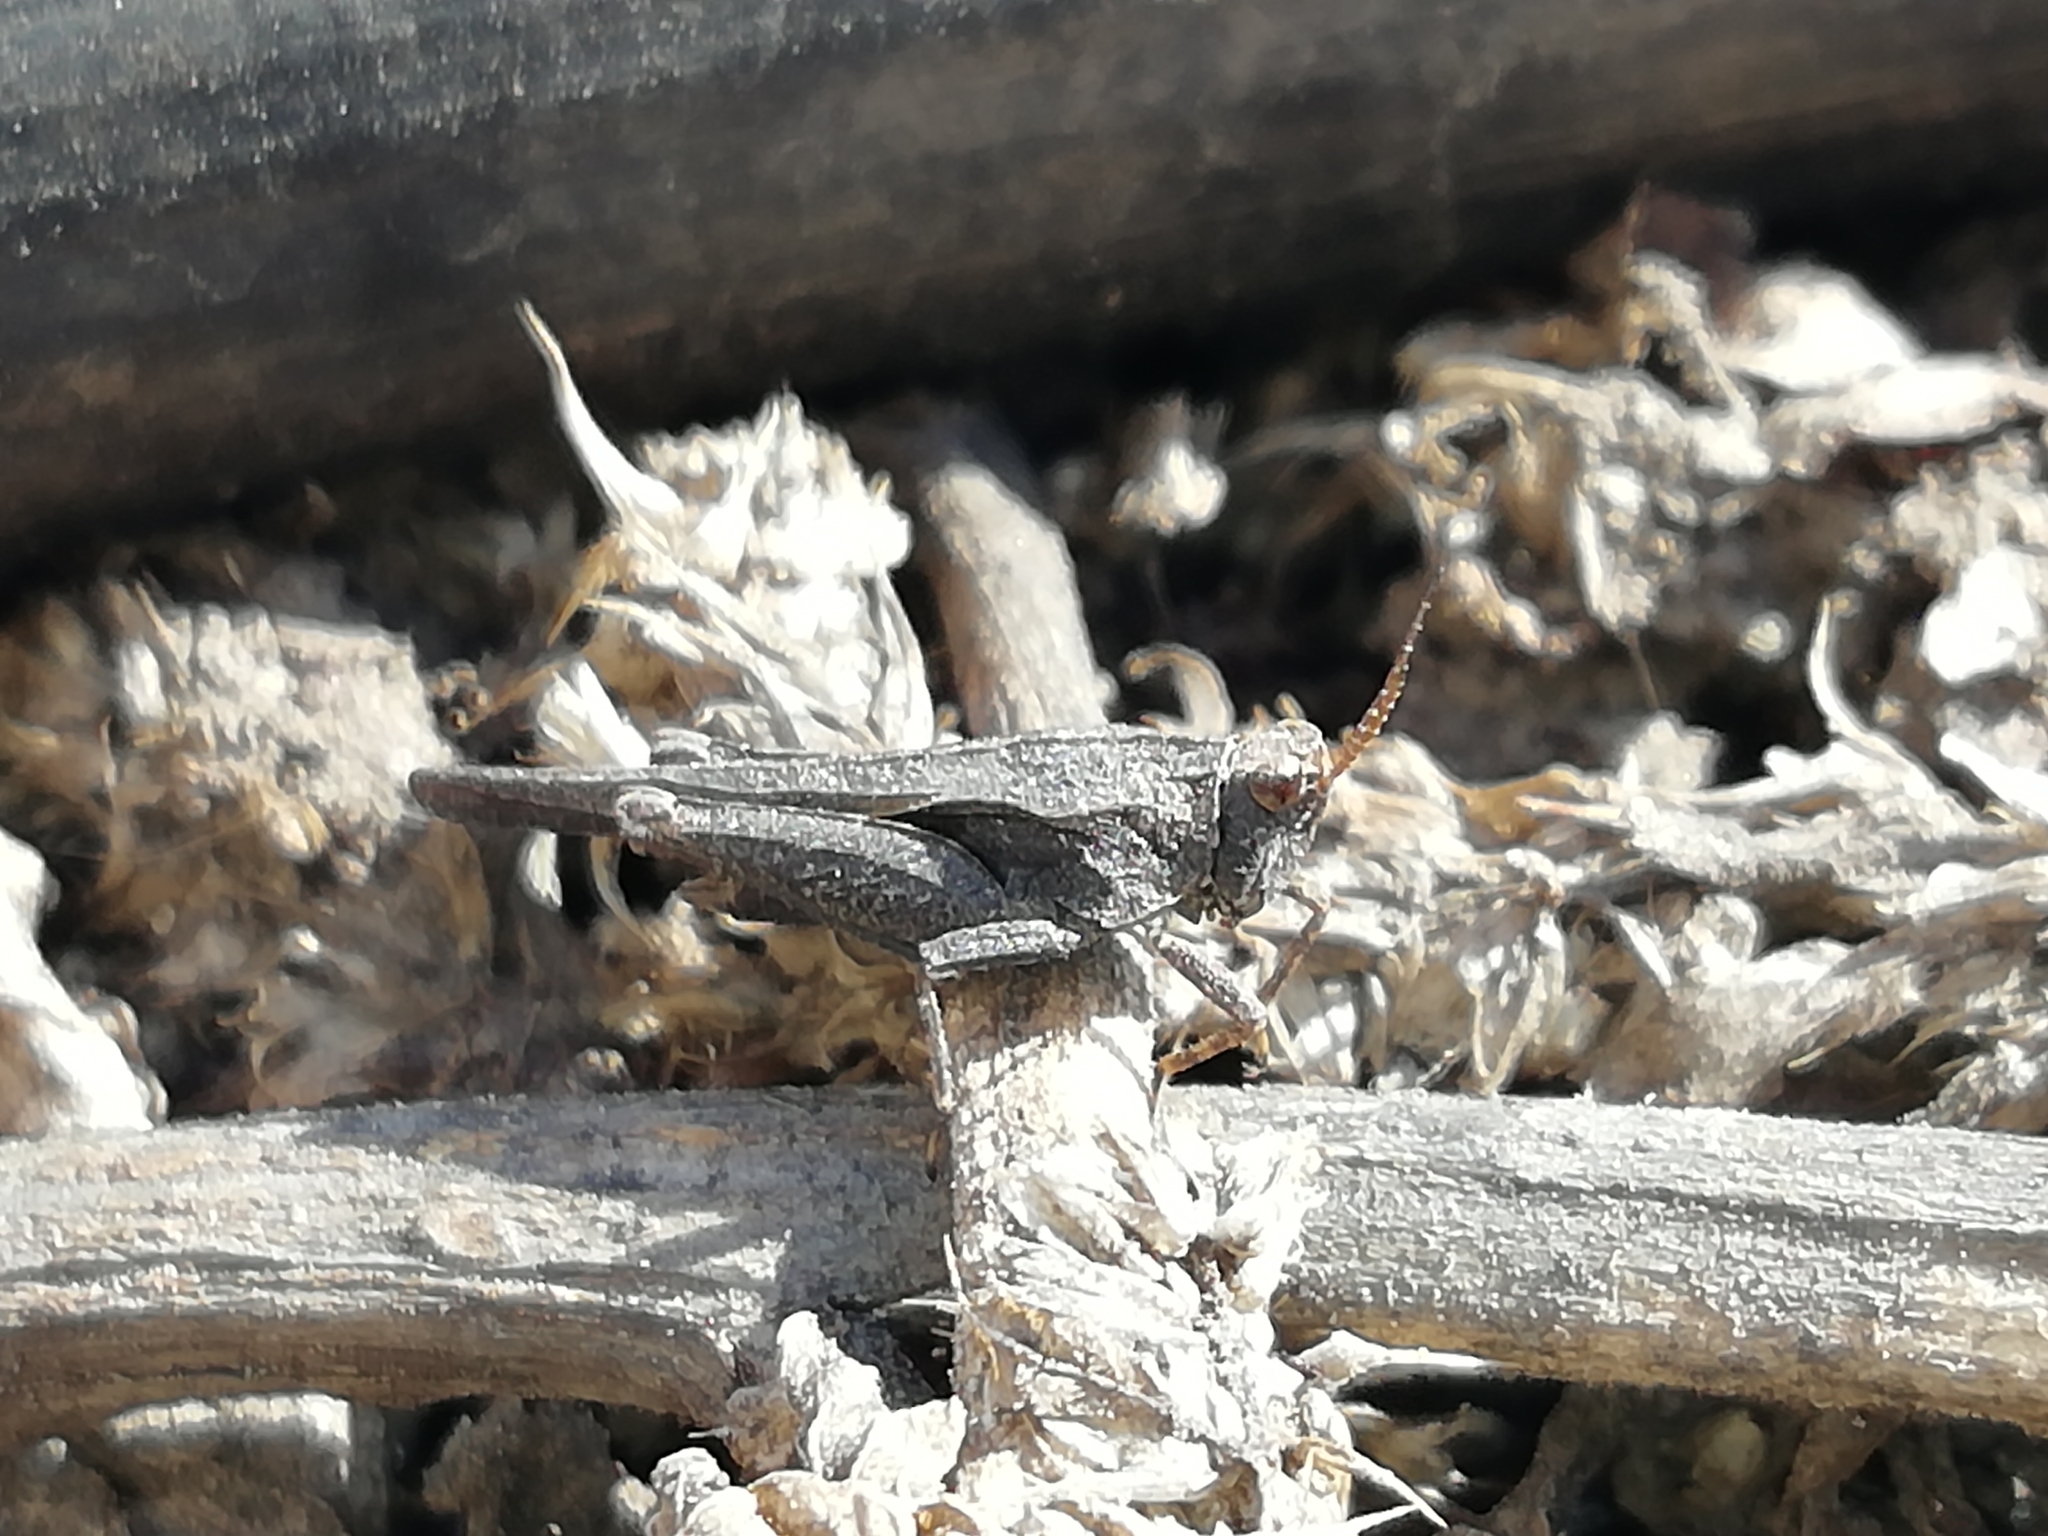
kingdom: Animalia
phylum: Arthropoda
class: Insecta
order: Orthoptera
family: Tetrigidae
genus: Tetrix
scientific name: Tetrix subulata
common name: Slender ground-hopper
